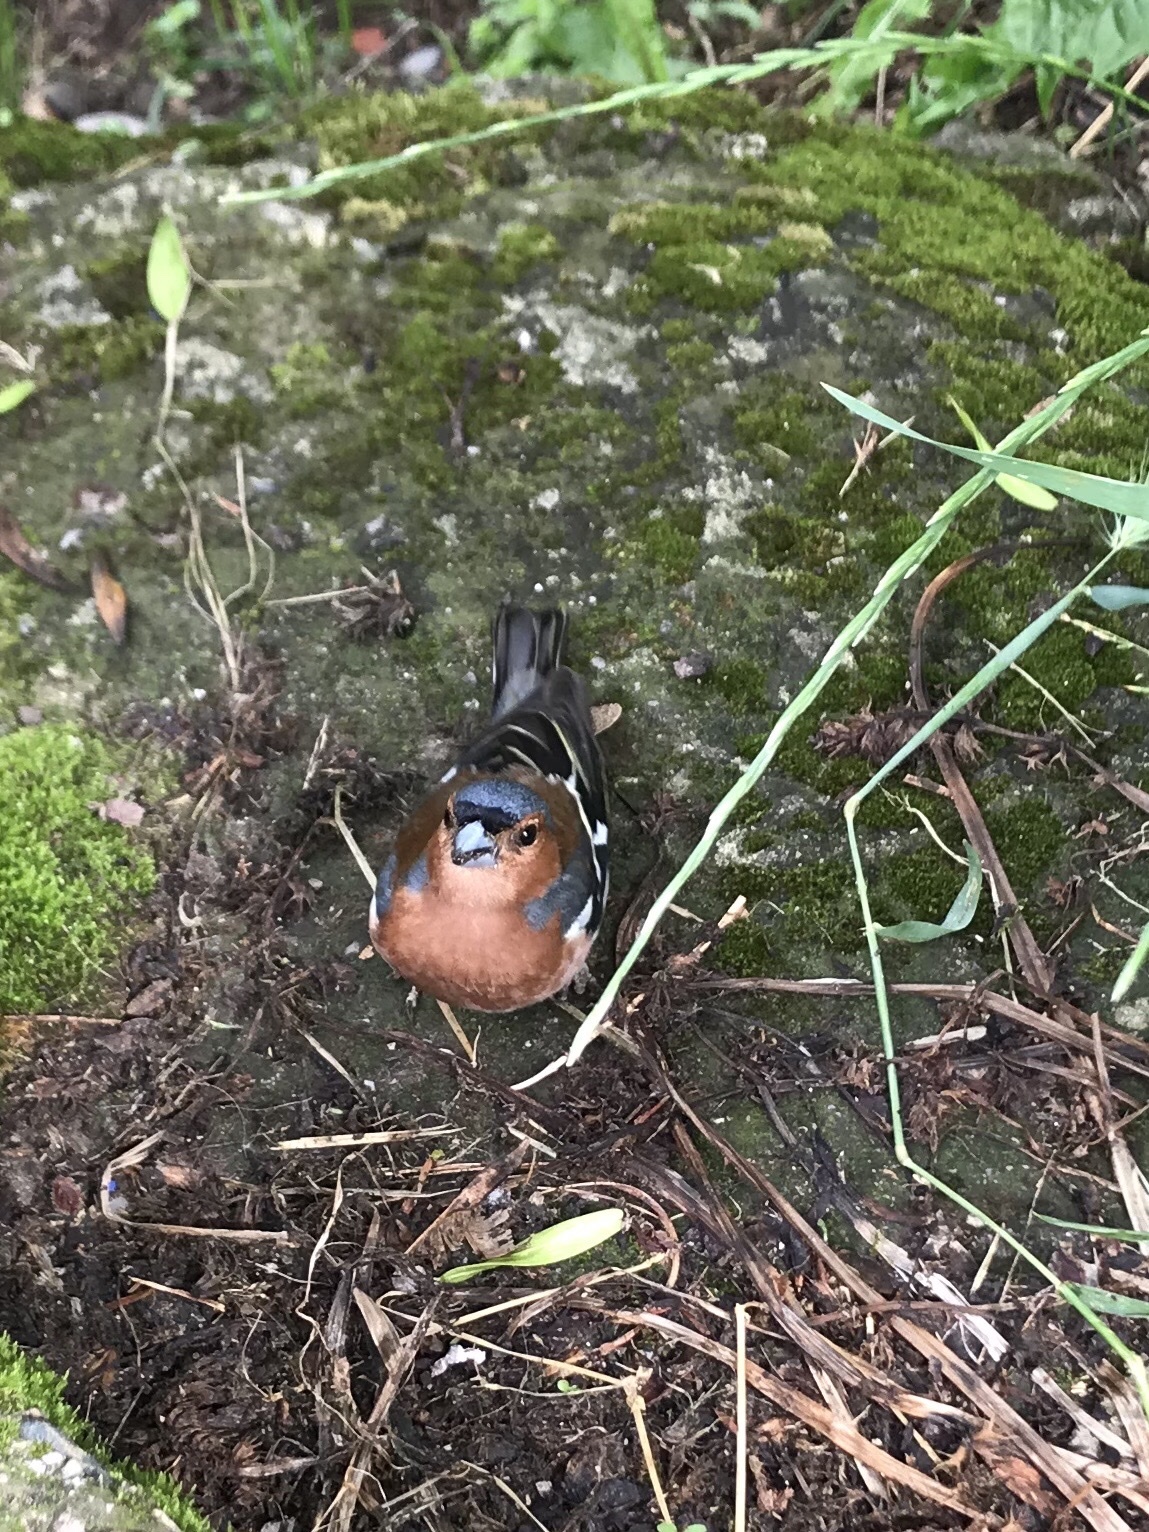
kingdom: Animalia
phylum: Chordata
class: Aves
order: Passeriformes
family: Fringillidae
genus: Fringilla
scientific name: Fringilla coelebs
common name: Common chaffinch
